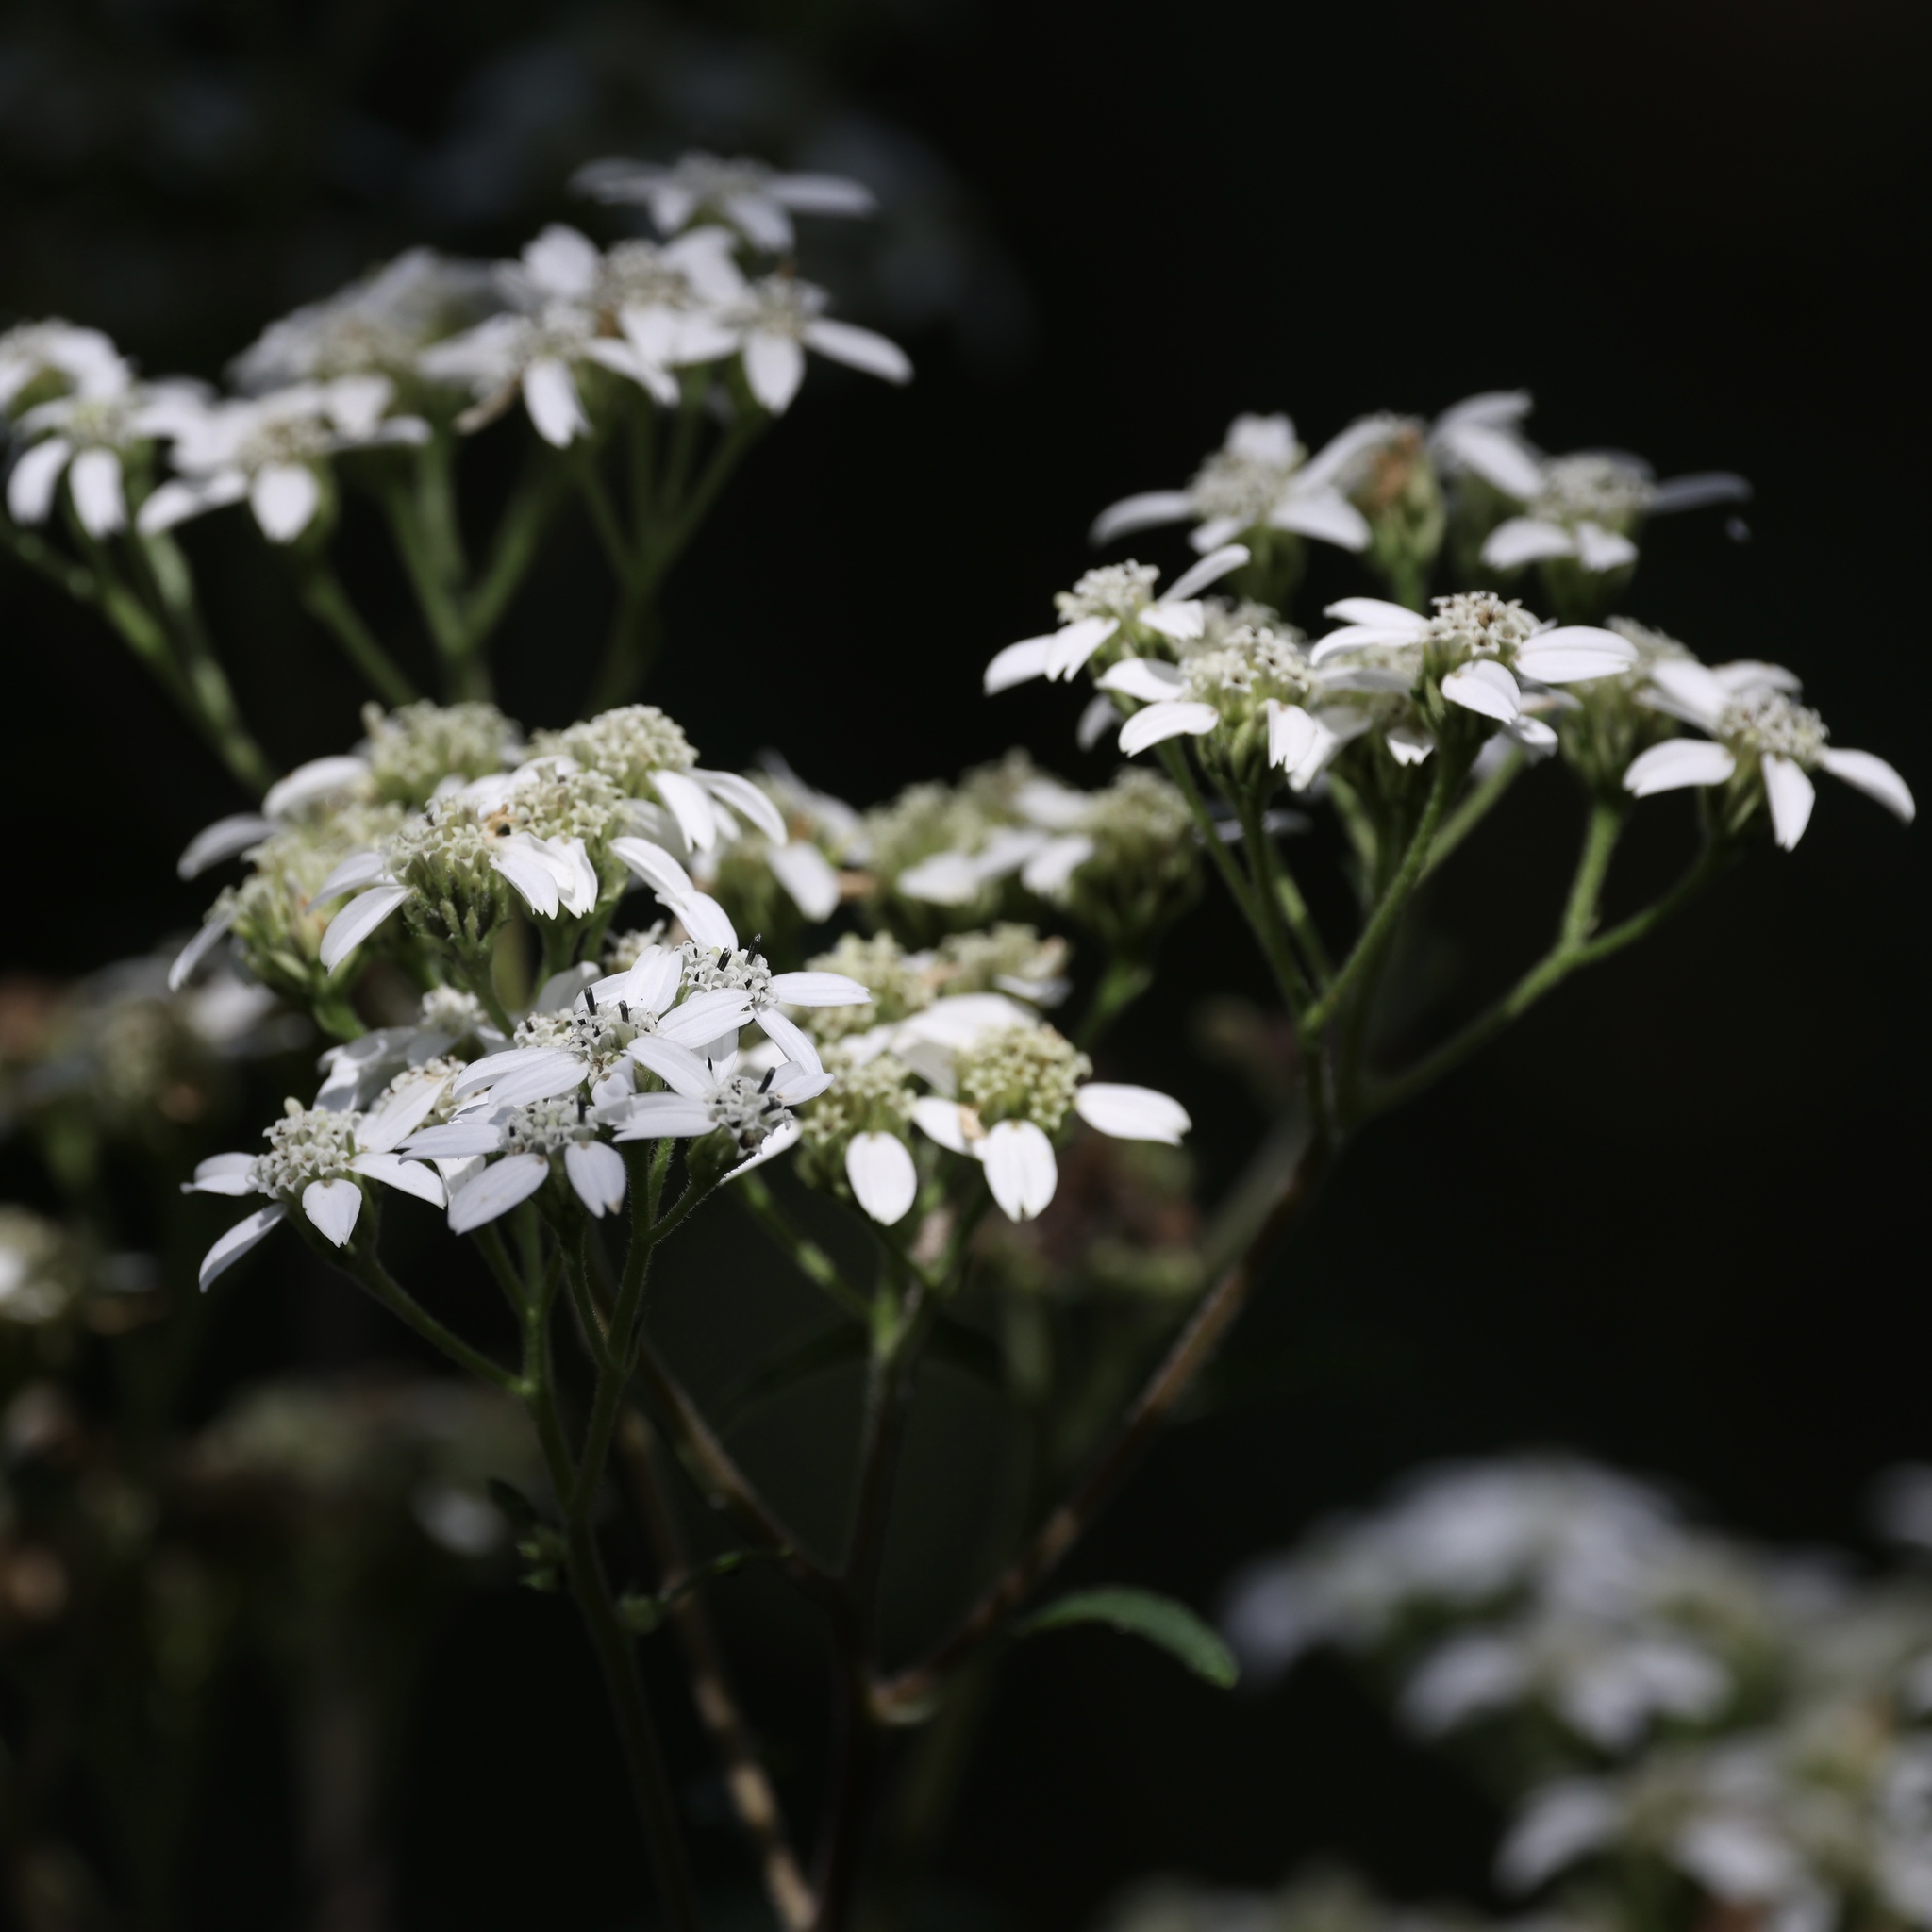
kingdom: Plantae
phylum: Tracheophyta
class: Magnoliopsida
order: Asterales
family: Asteraceae
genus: Verbesina
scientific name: Verbesina virginica
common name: Frostweed
